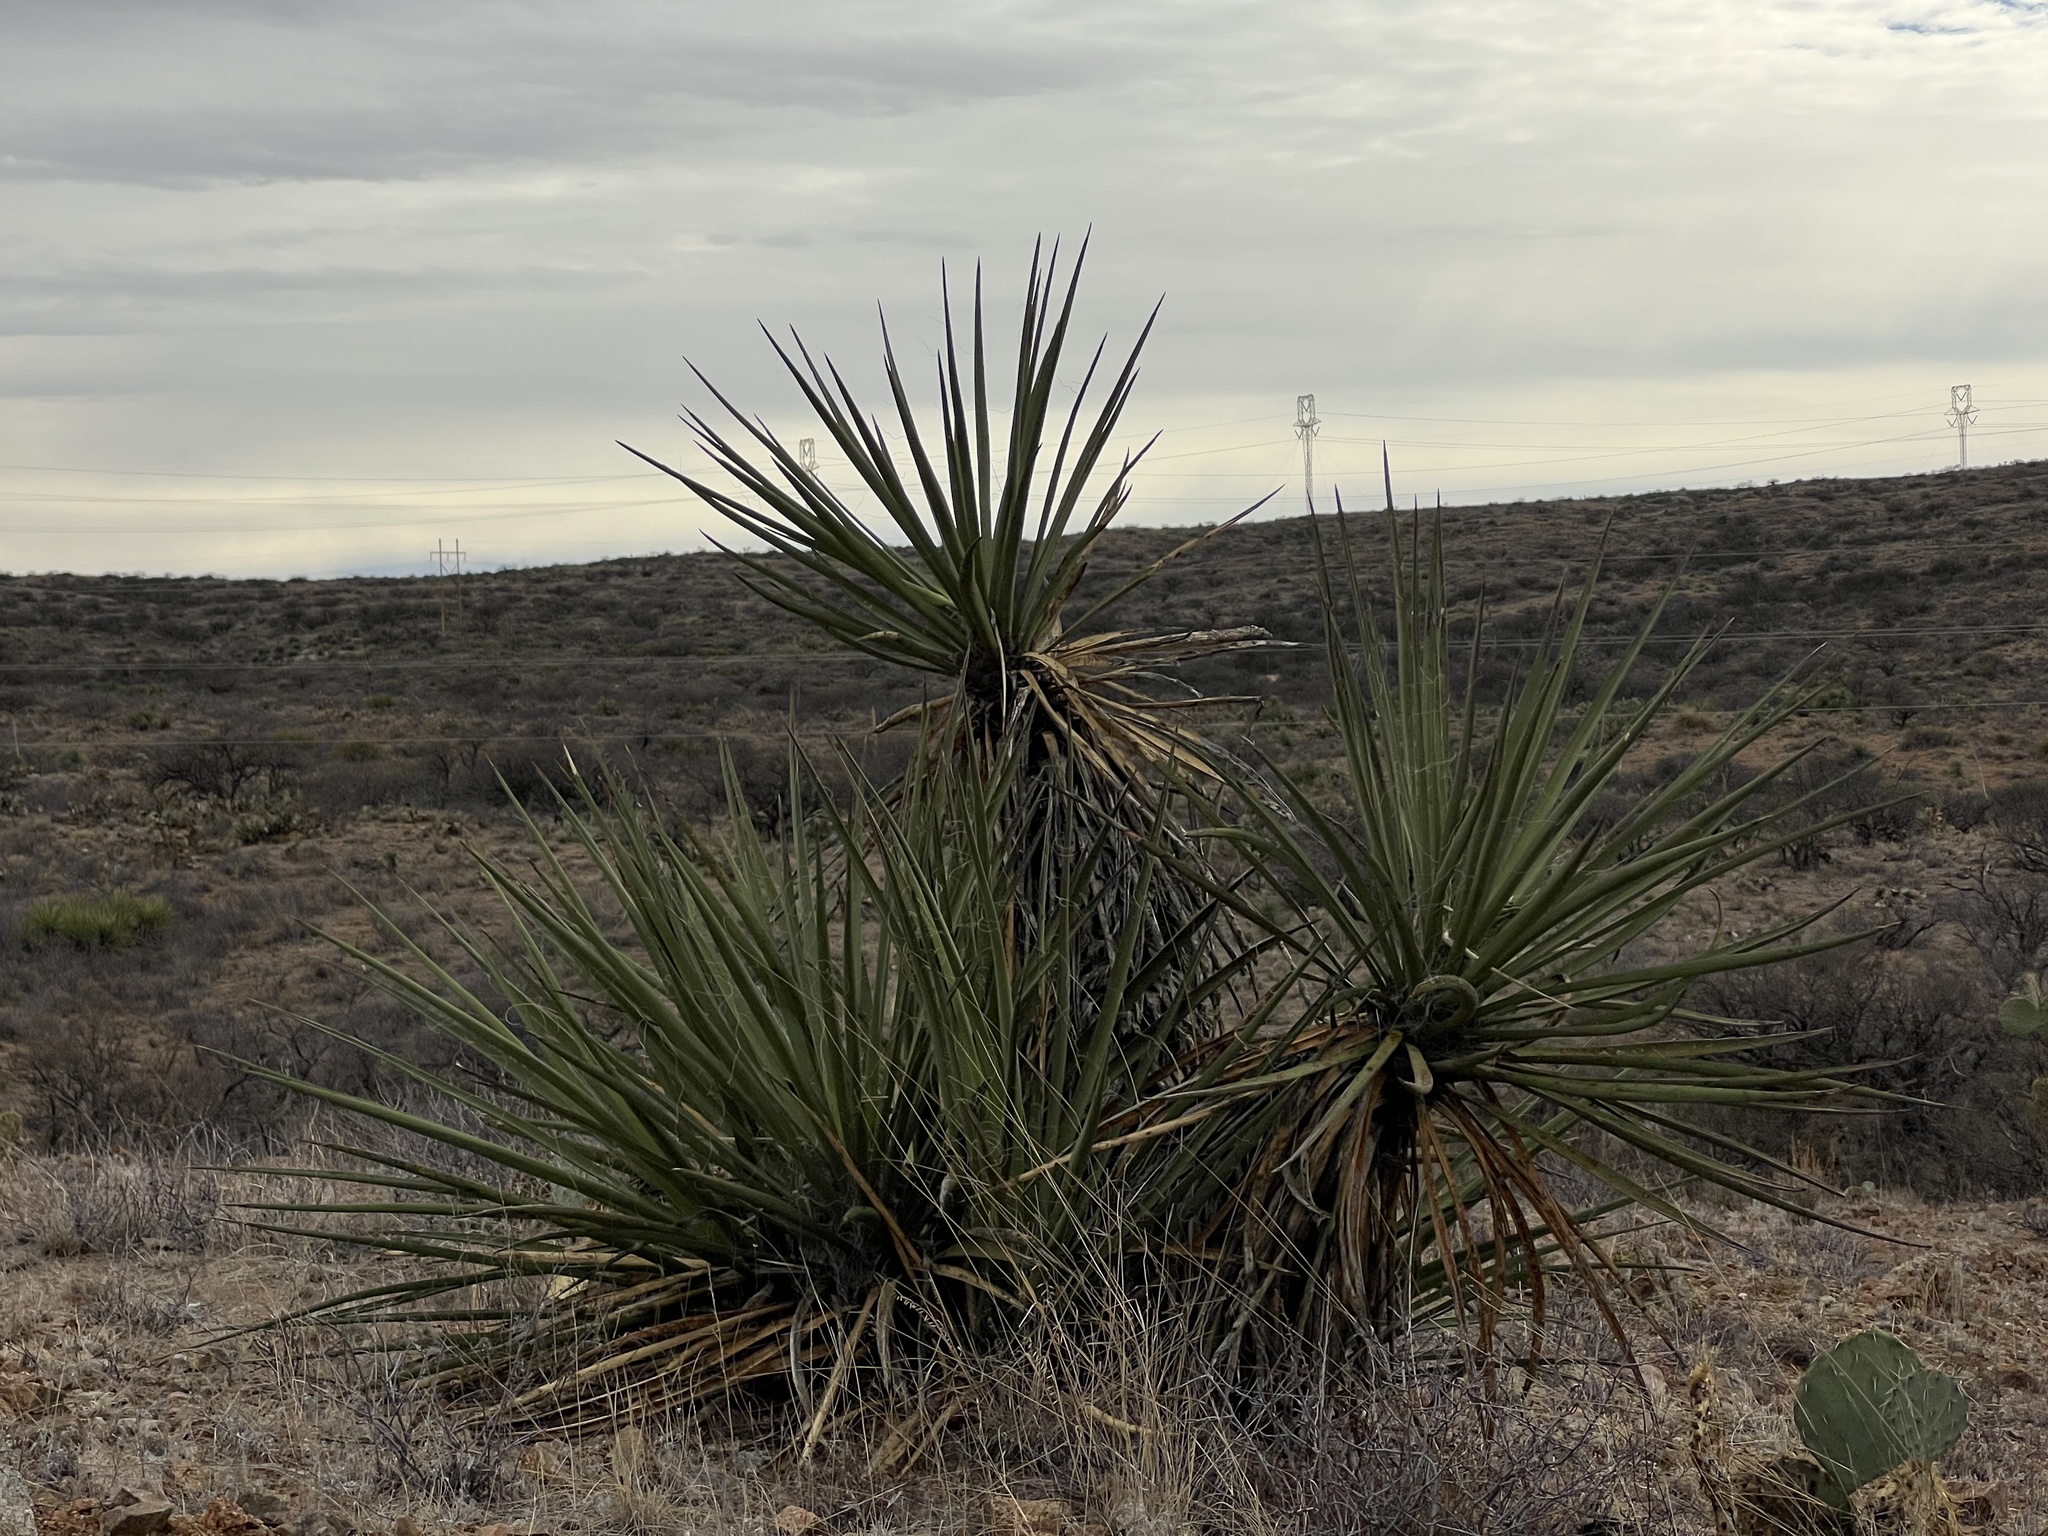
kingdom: Plantae
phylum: Tracheophyta
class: Liliopsida
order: Asparagales
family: Asparagaceae
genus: Yucca
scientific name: Yucca baccata
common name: Banana yucca
